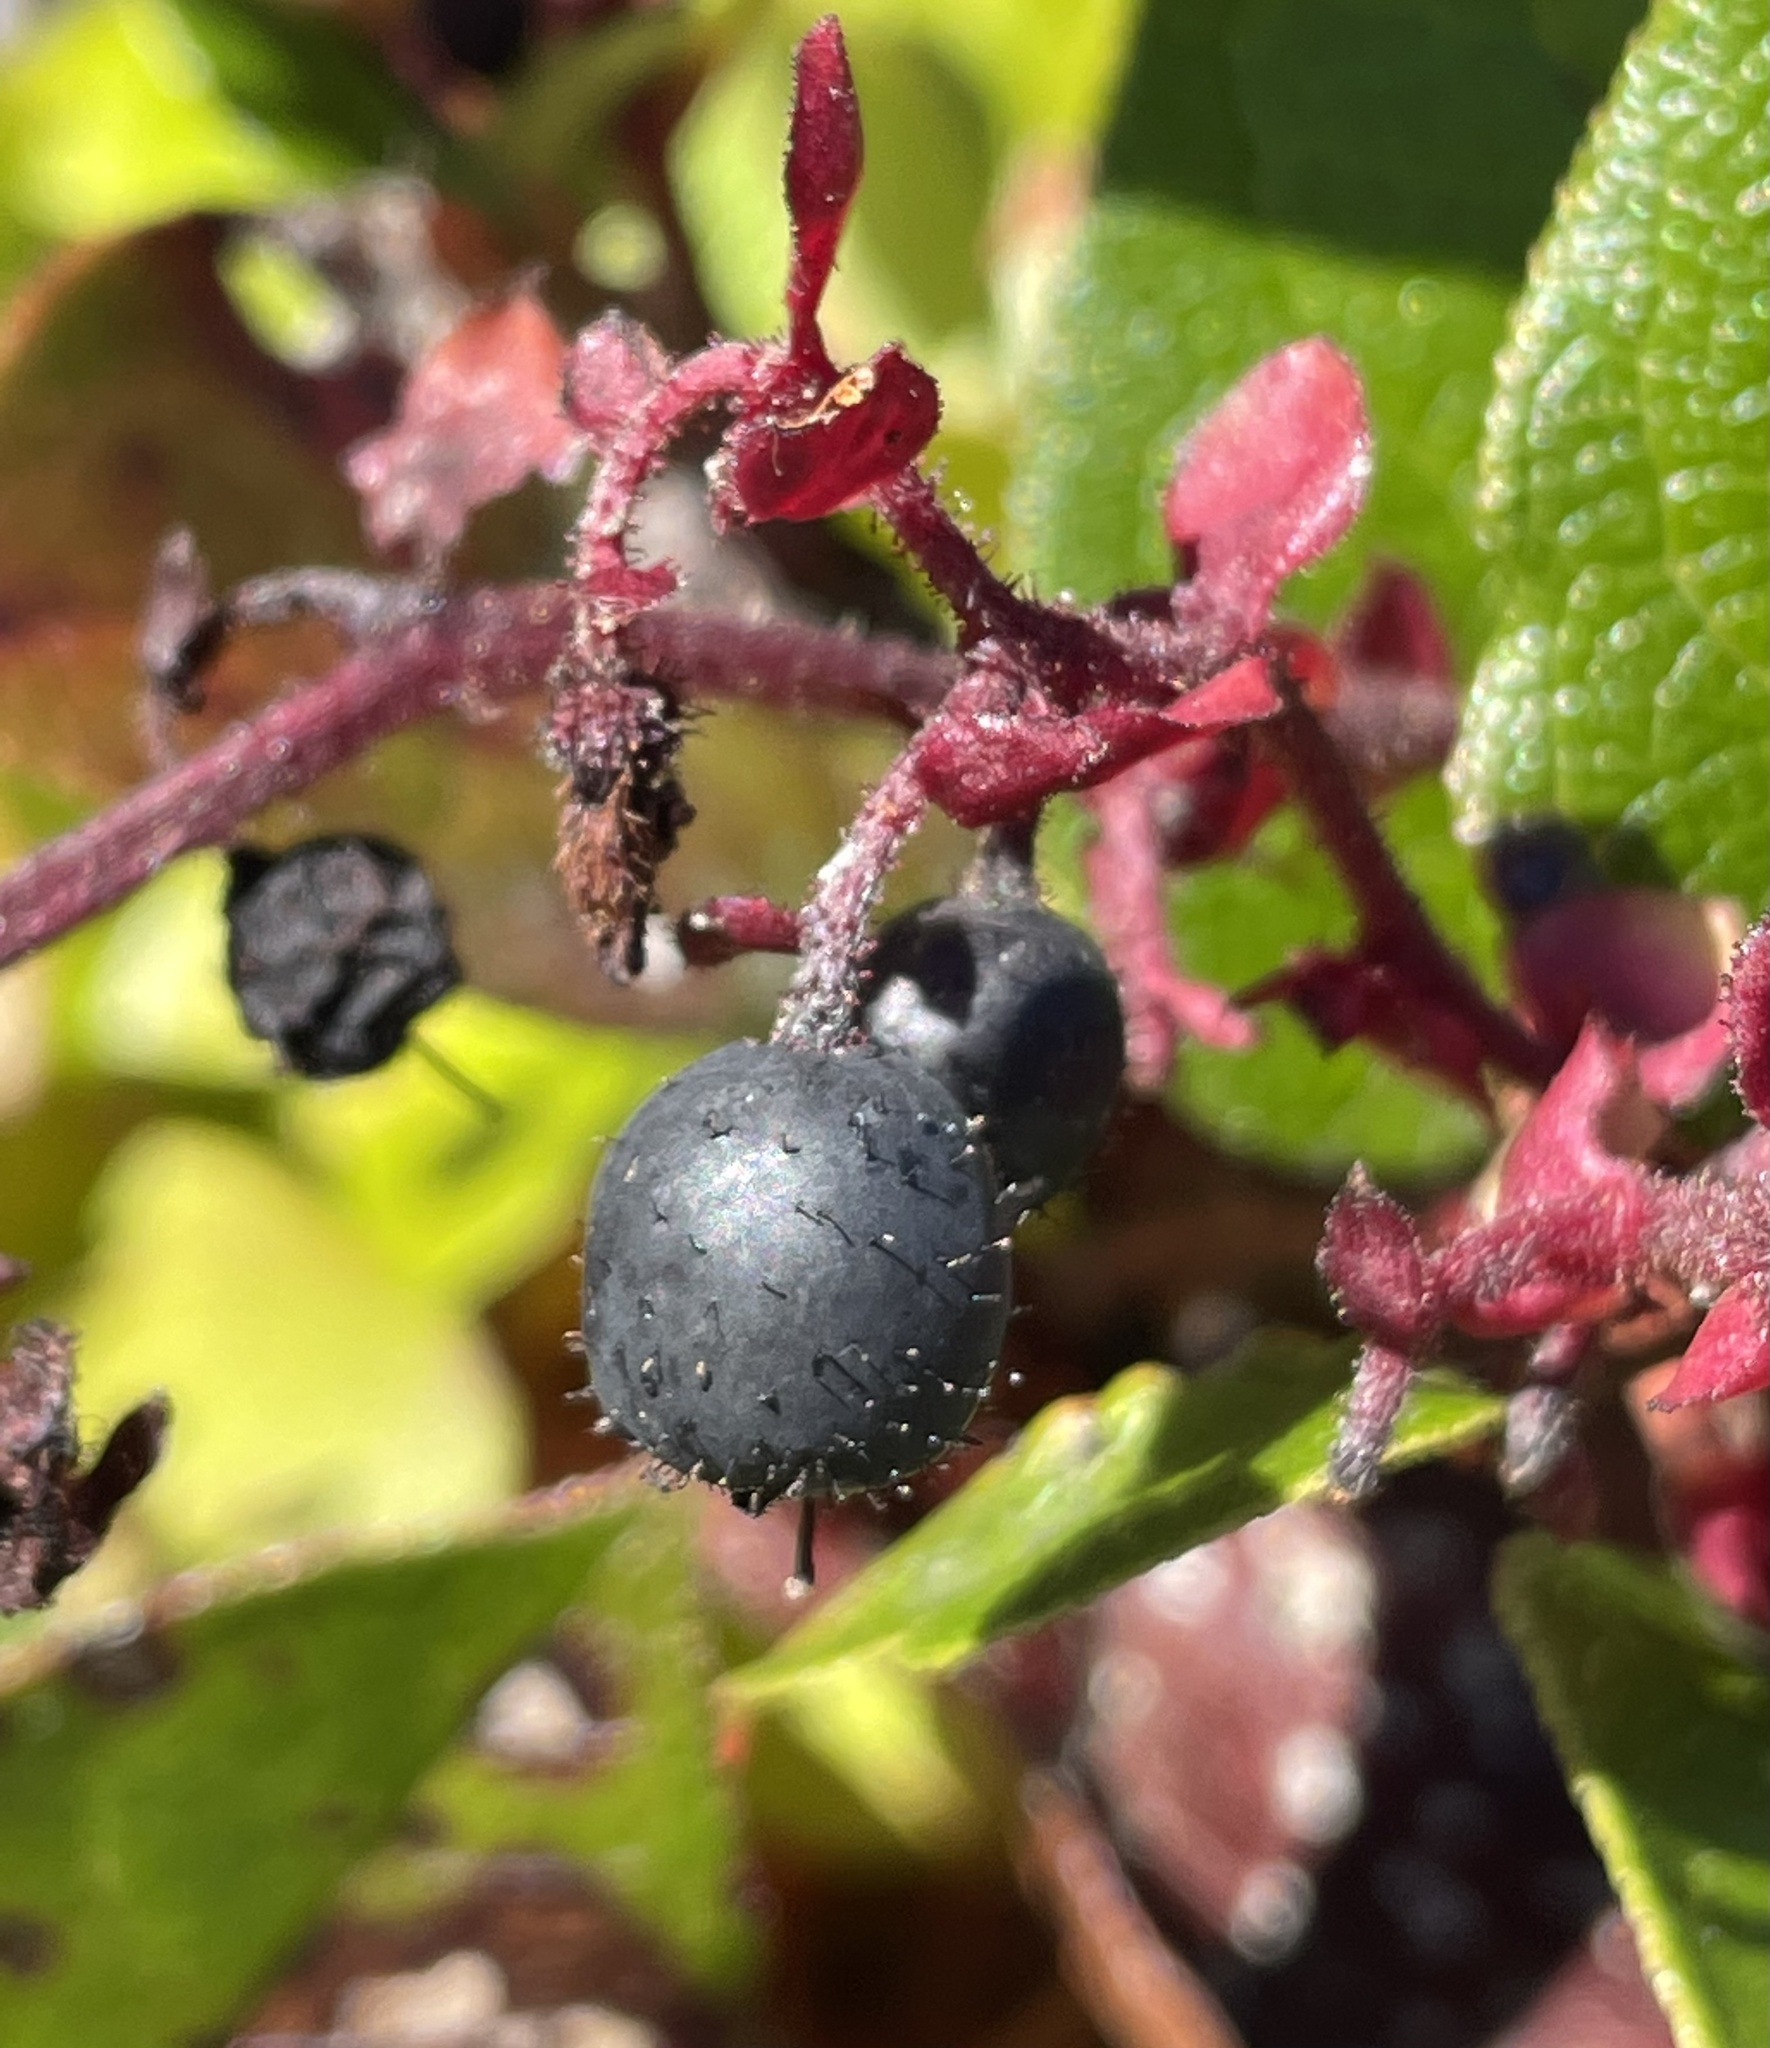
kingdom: Plantae
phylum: Tracheophyta
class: Magnoliopsida
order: Ericales
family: Ericaceae
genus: Gaultheria
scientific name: Gaultheria shallon
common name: Shallon
